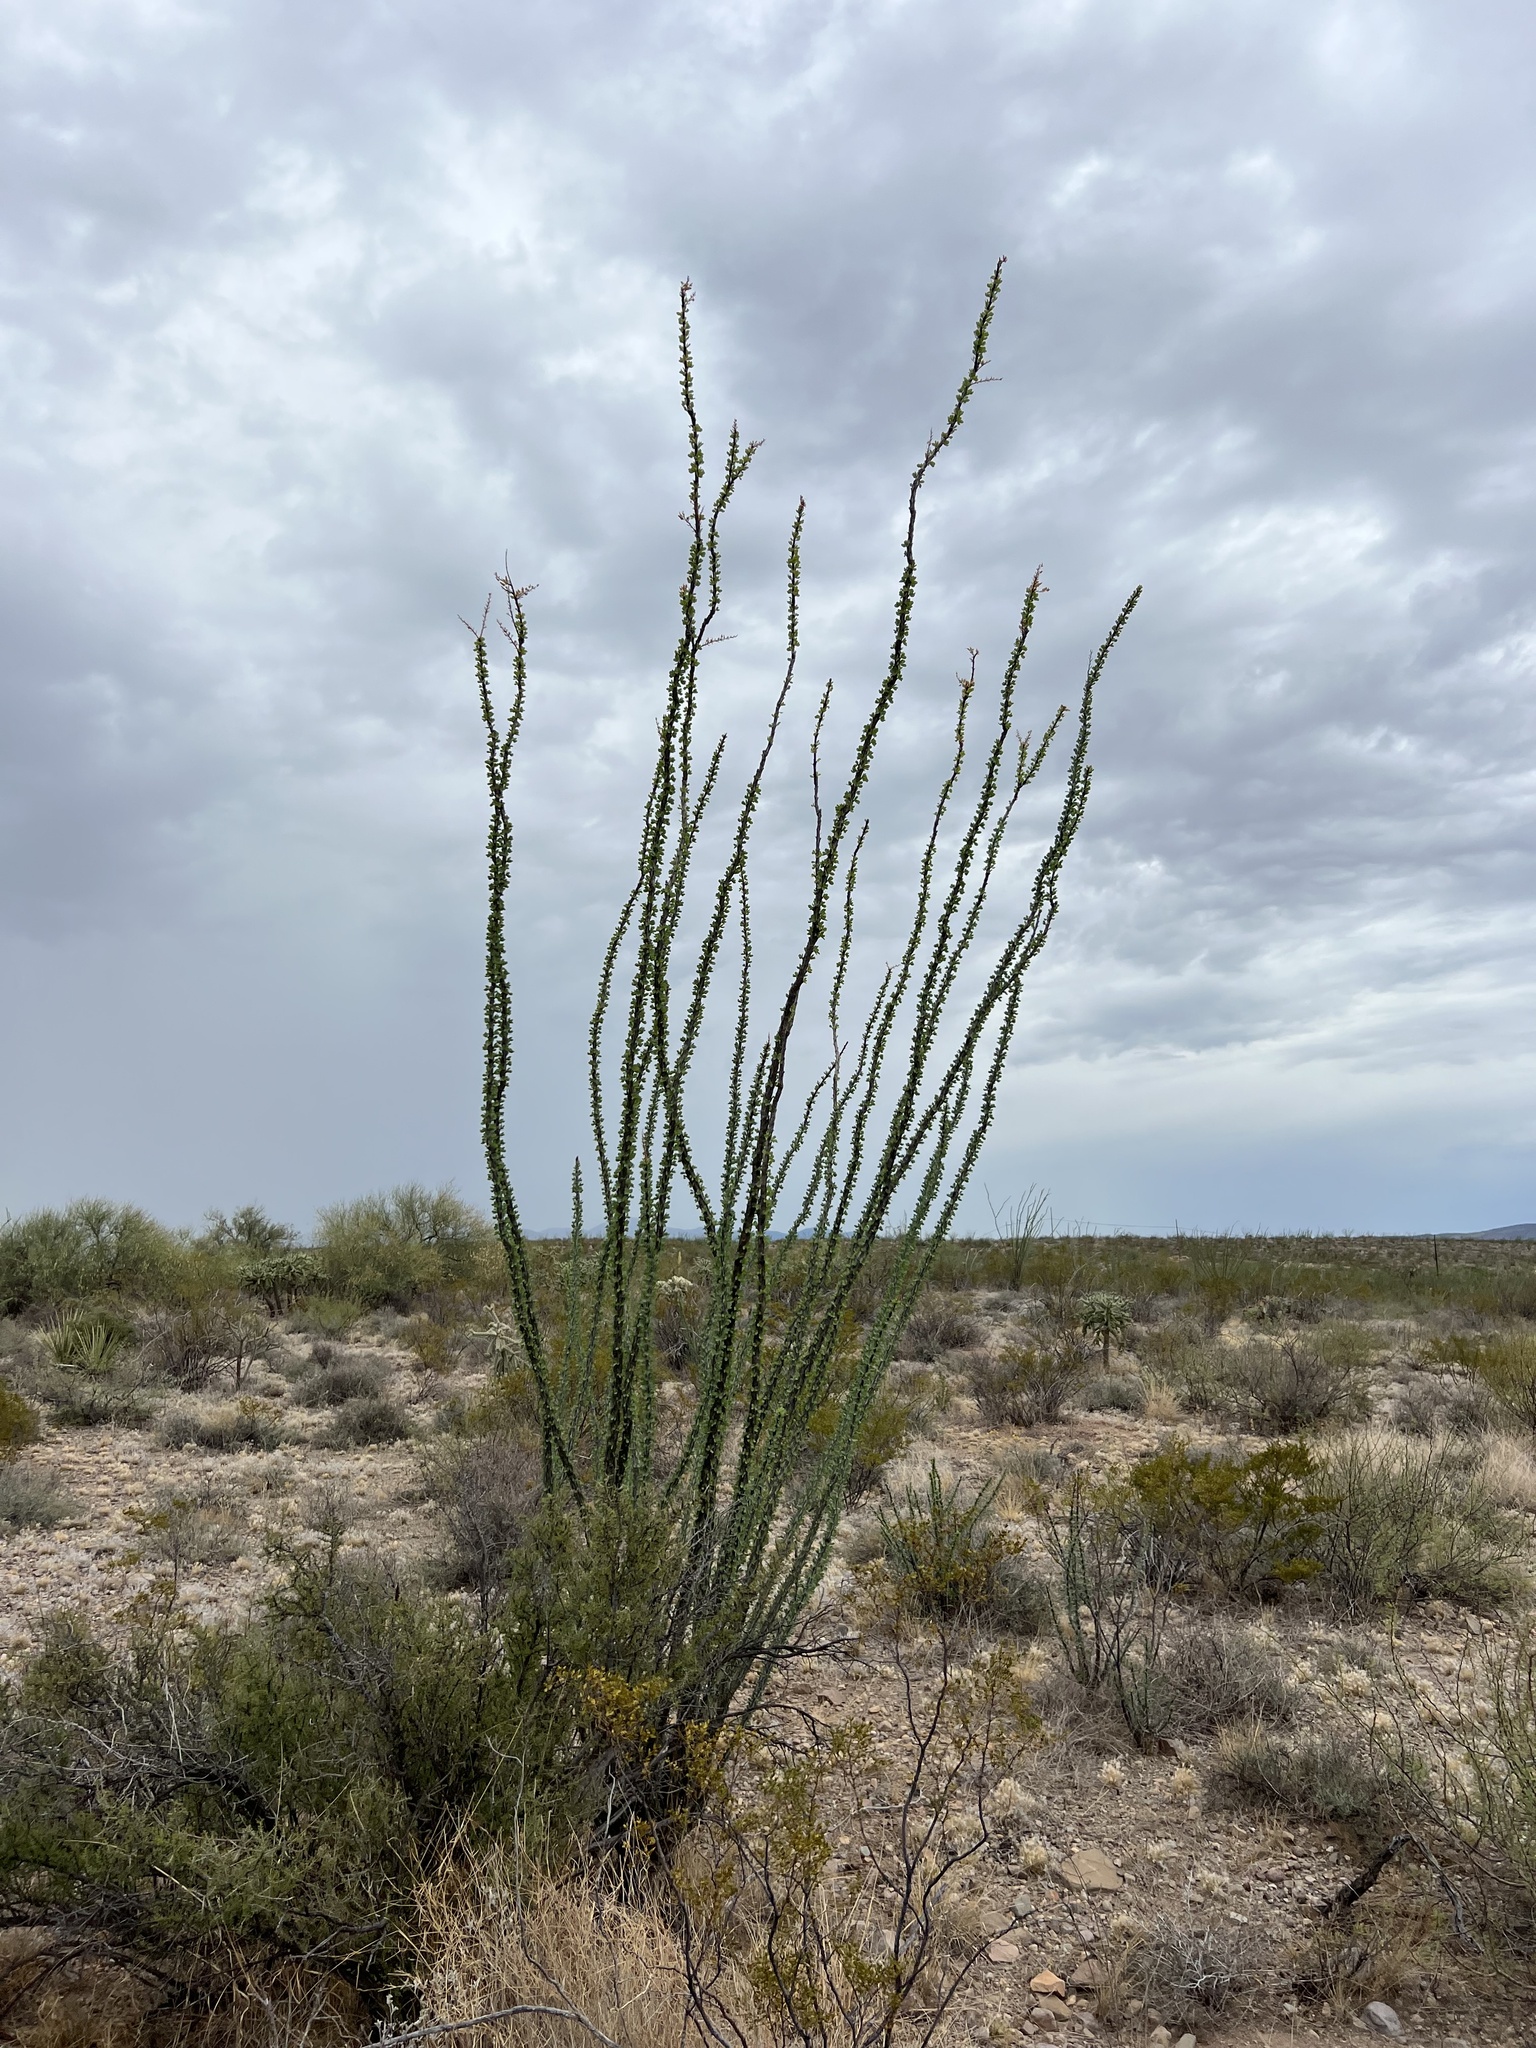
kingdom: Plantae
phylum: Tracheophyta
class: Magnoliopsida
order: Ericales
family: Fouquieriaceae
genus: Fouquieria
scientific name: Fouquieria splendens
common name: Vine-cactus
